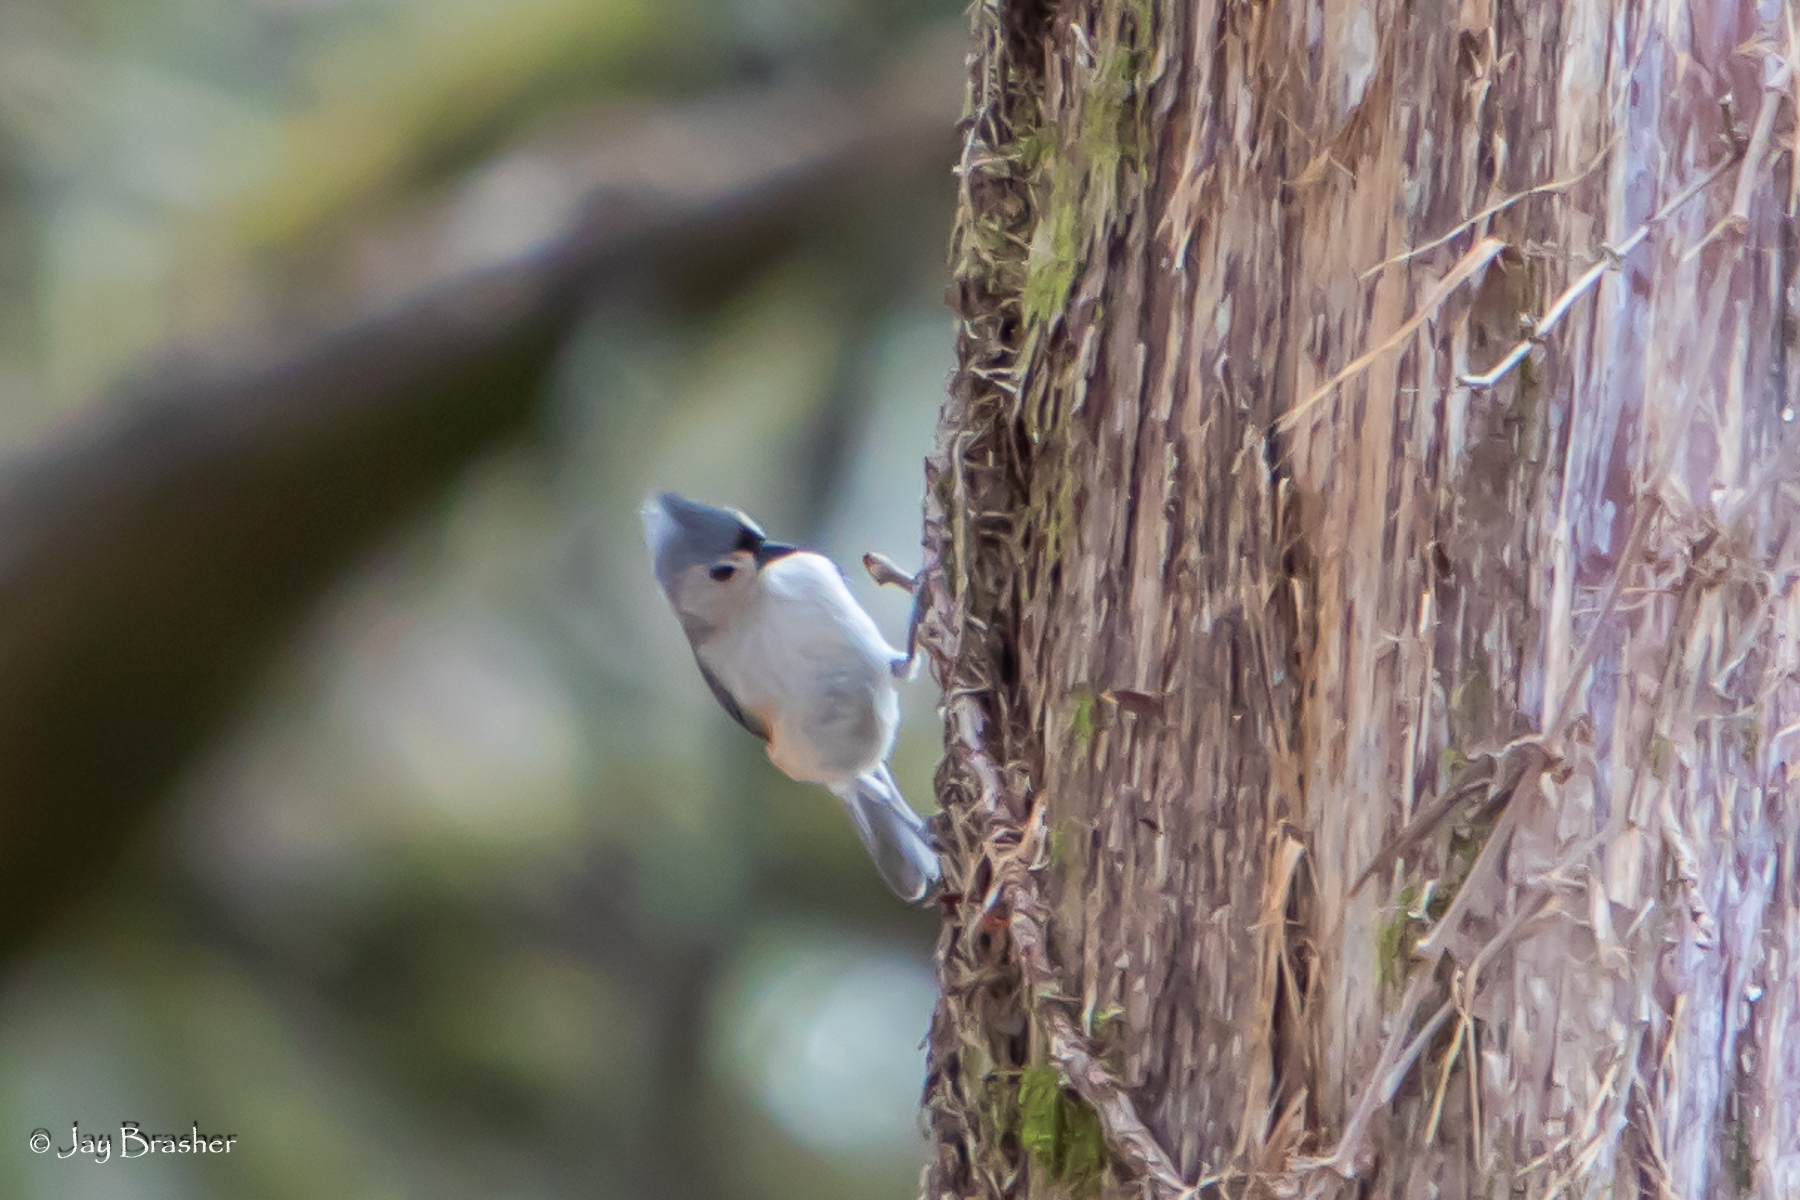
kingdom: Animalia
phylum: Chordata
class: Aves
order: Passeriformes
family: Paridae
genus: Baeolophus
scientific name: Baeolophus bicolor
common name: Tufted titmouse
